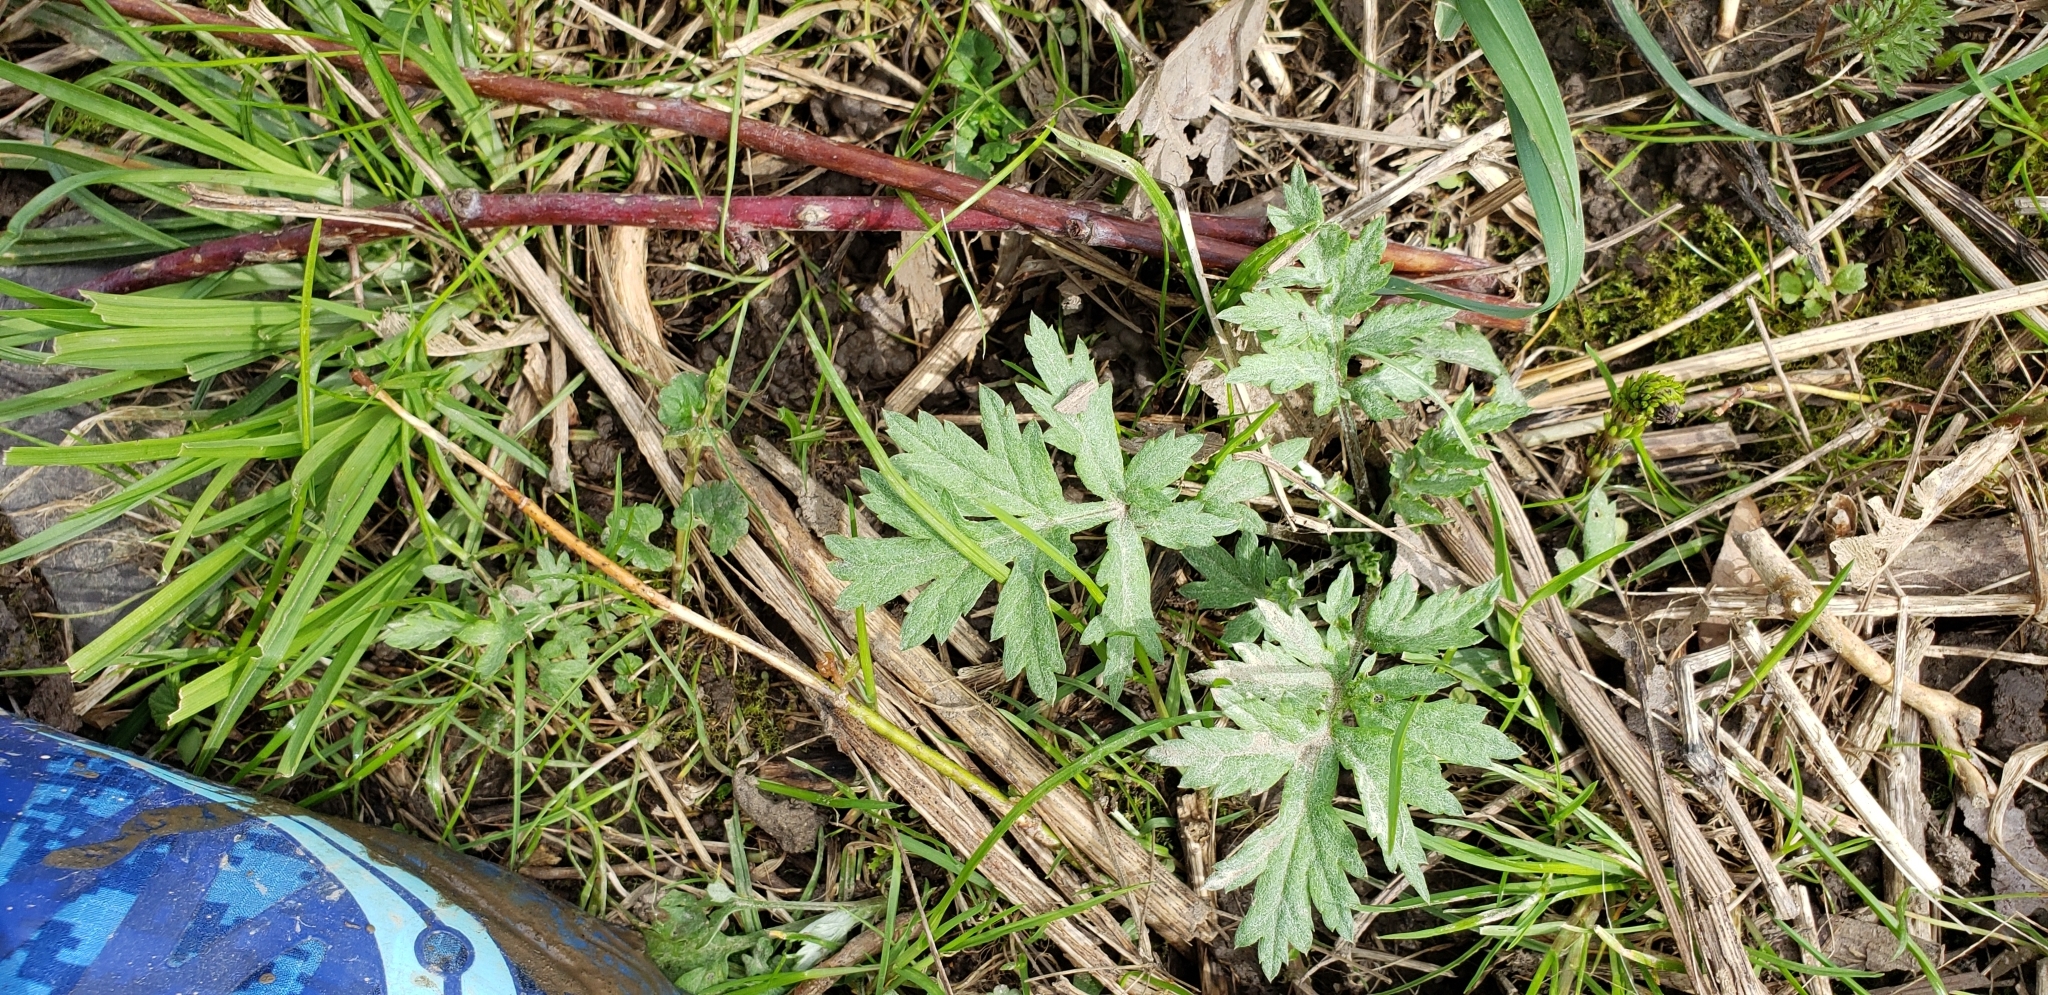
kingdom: Plantae
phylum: Tracheophyta
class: Magnoliopsida
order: Asterales
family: Asteraceae
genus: Artemisia
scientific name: Artemisia vulgaris
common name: Mugwort
